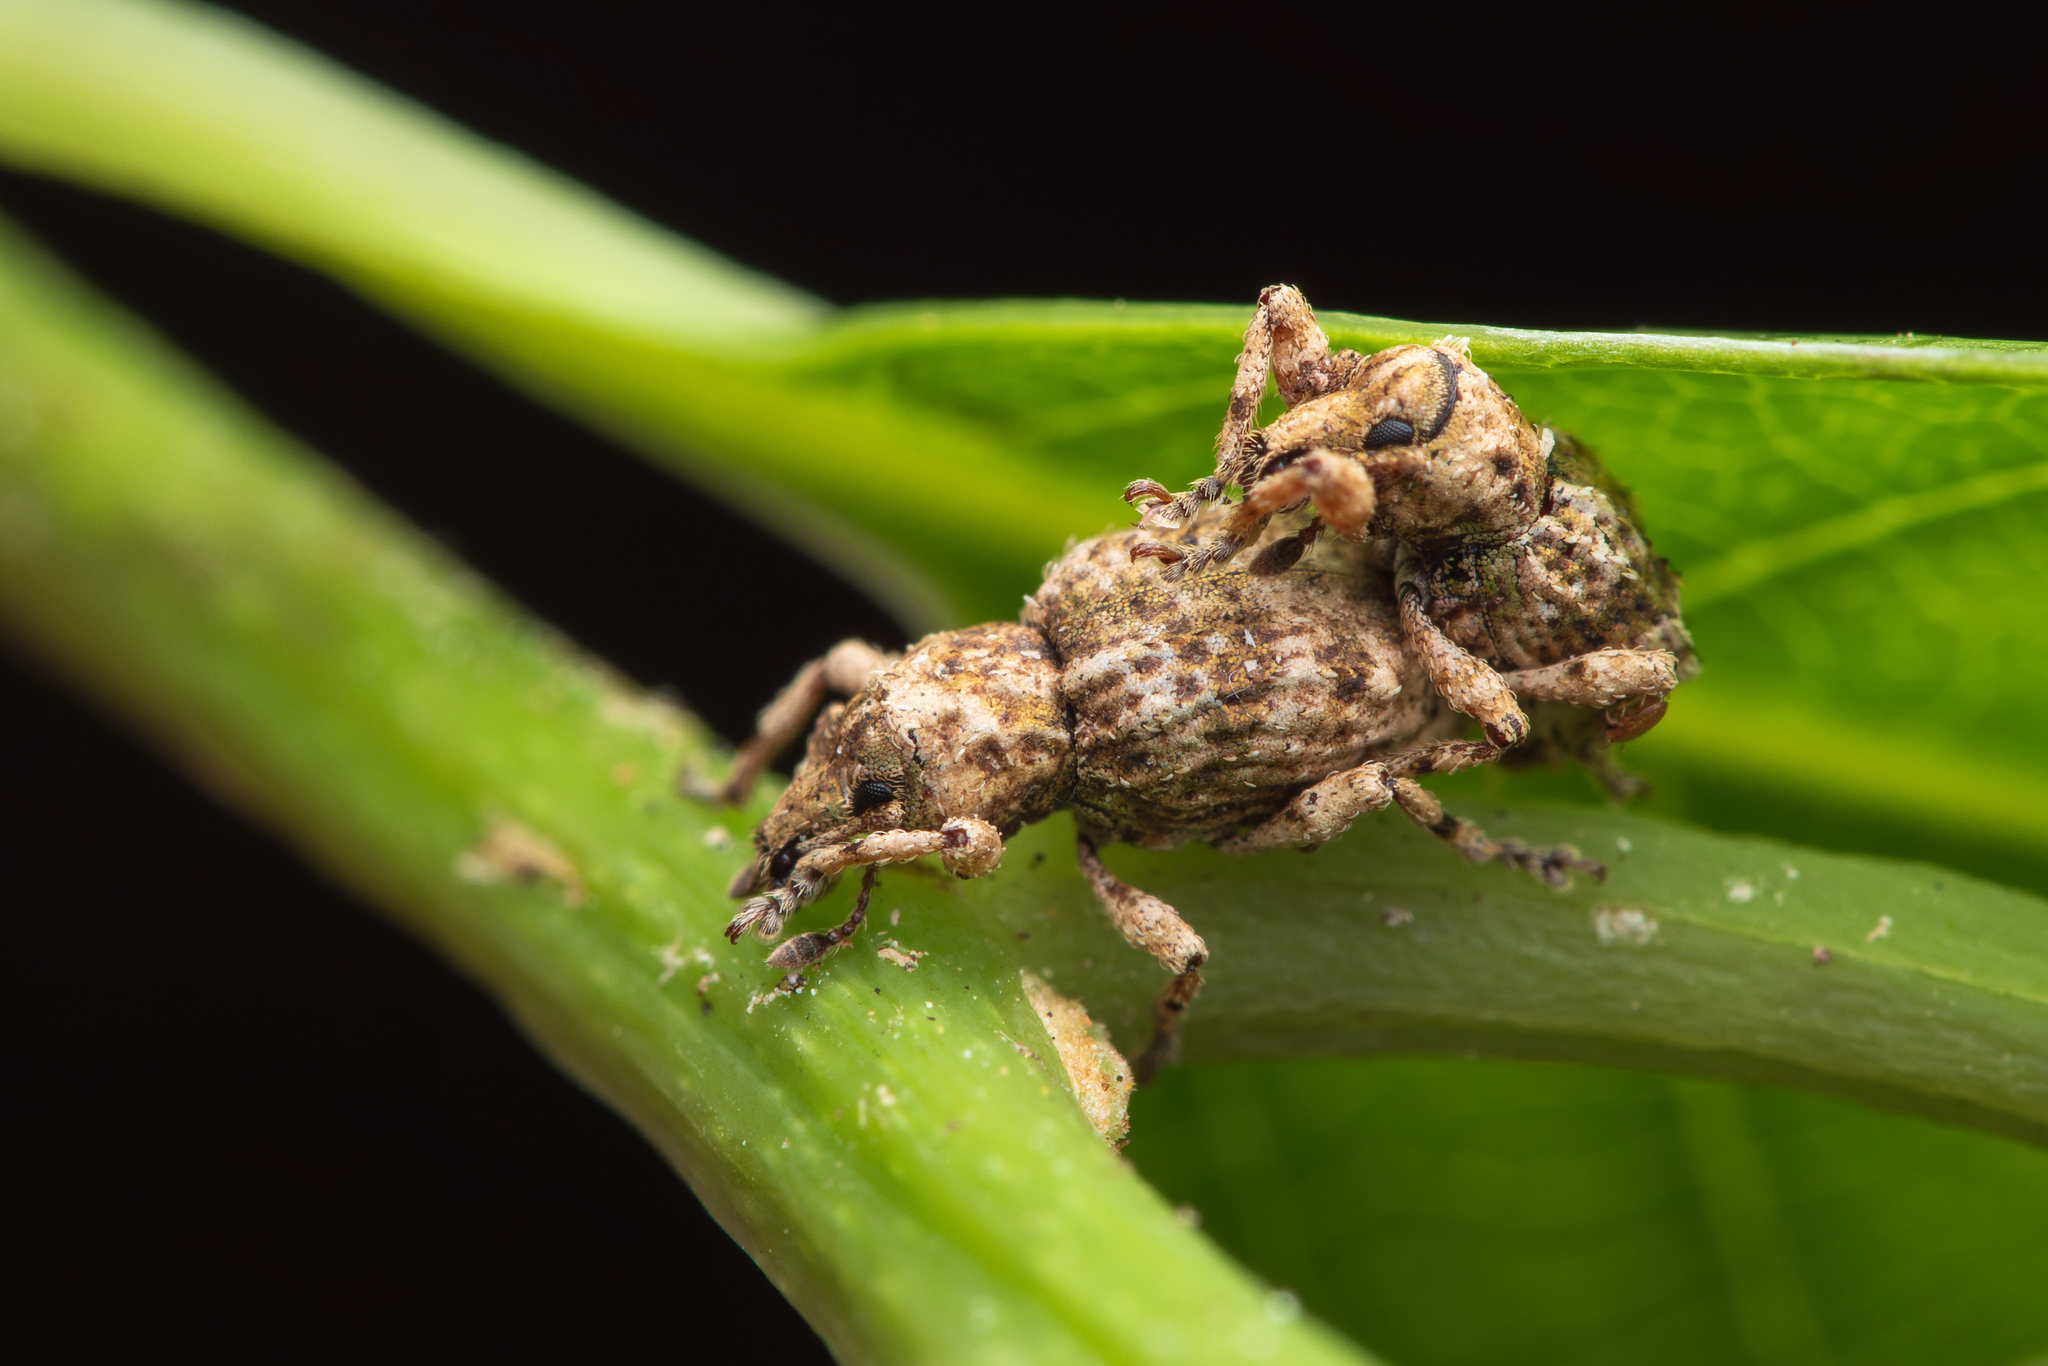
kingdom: Animalia
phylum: Arthropoda
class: Insecta
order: Coleoptera
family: Curculionidae
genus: Brachyolus
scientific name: Brachyolus punctatus
